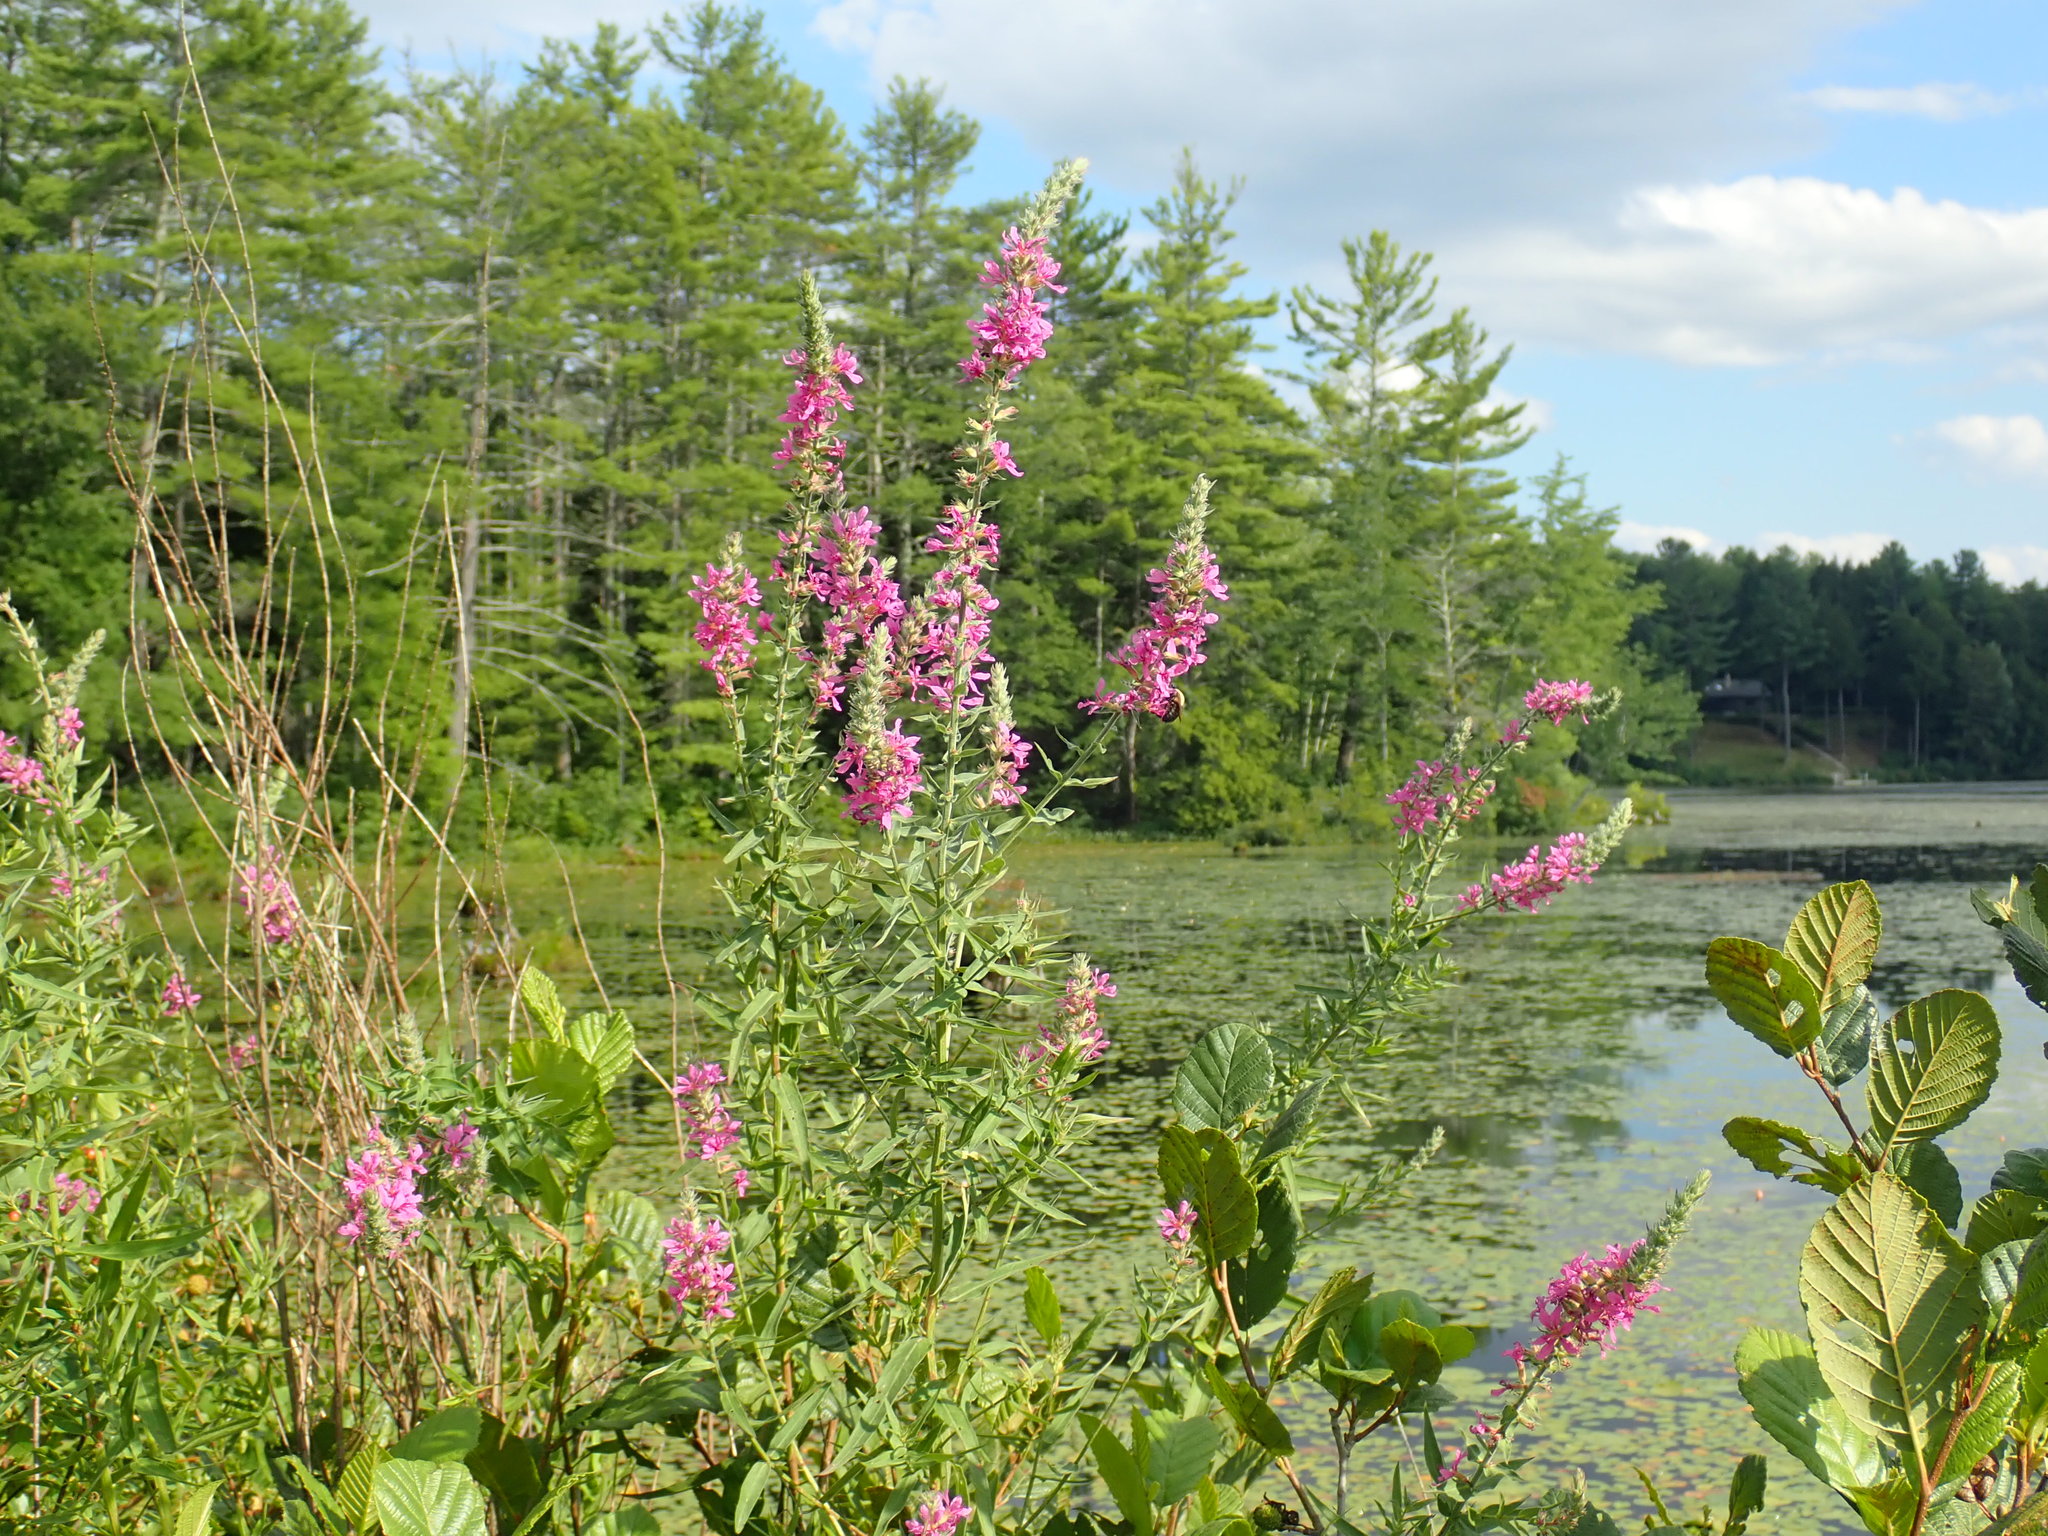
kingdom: Plantae
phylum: Tracheophyta
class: Magnoliopsida
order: Myrtales
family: Lythraceae
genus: Lythrum
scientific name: Lythrum salicaria
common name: Purple loosestrife
